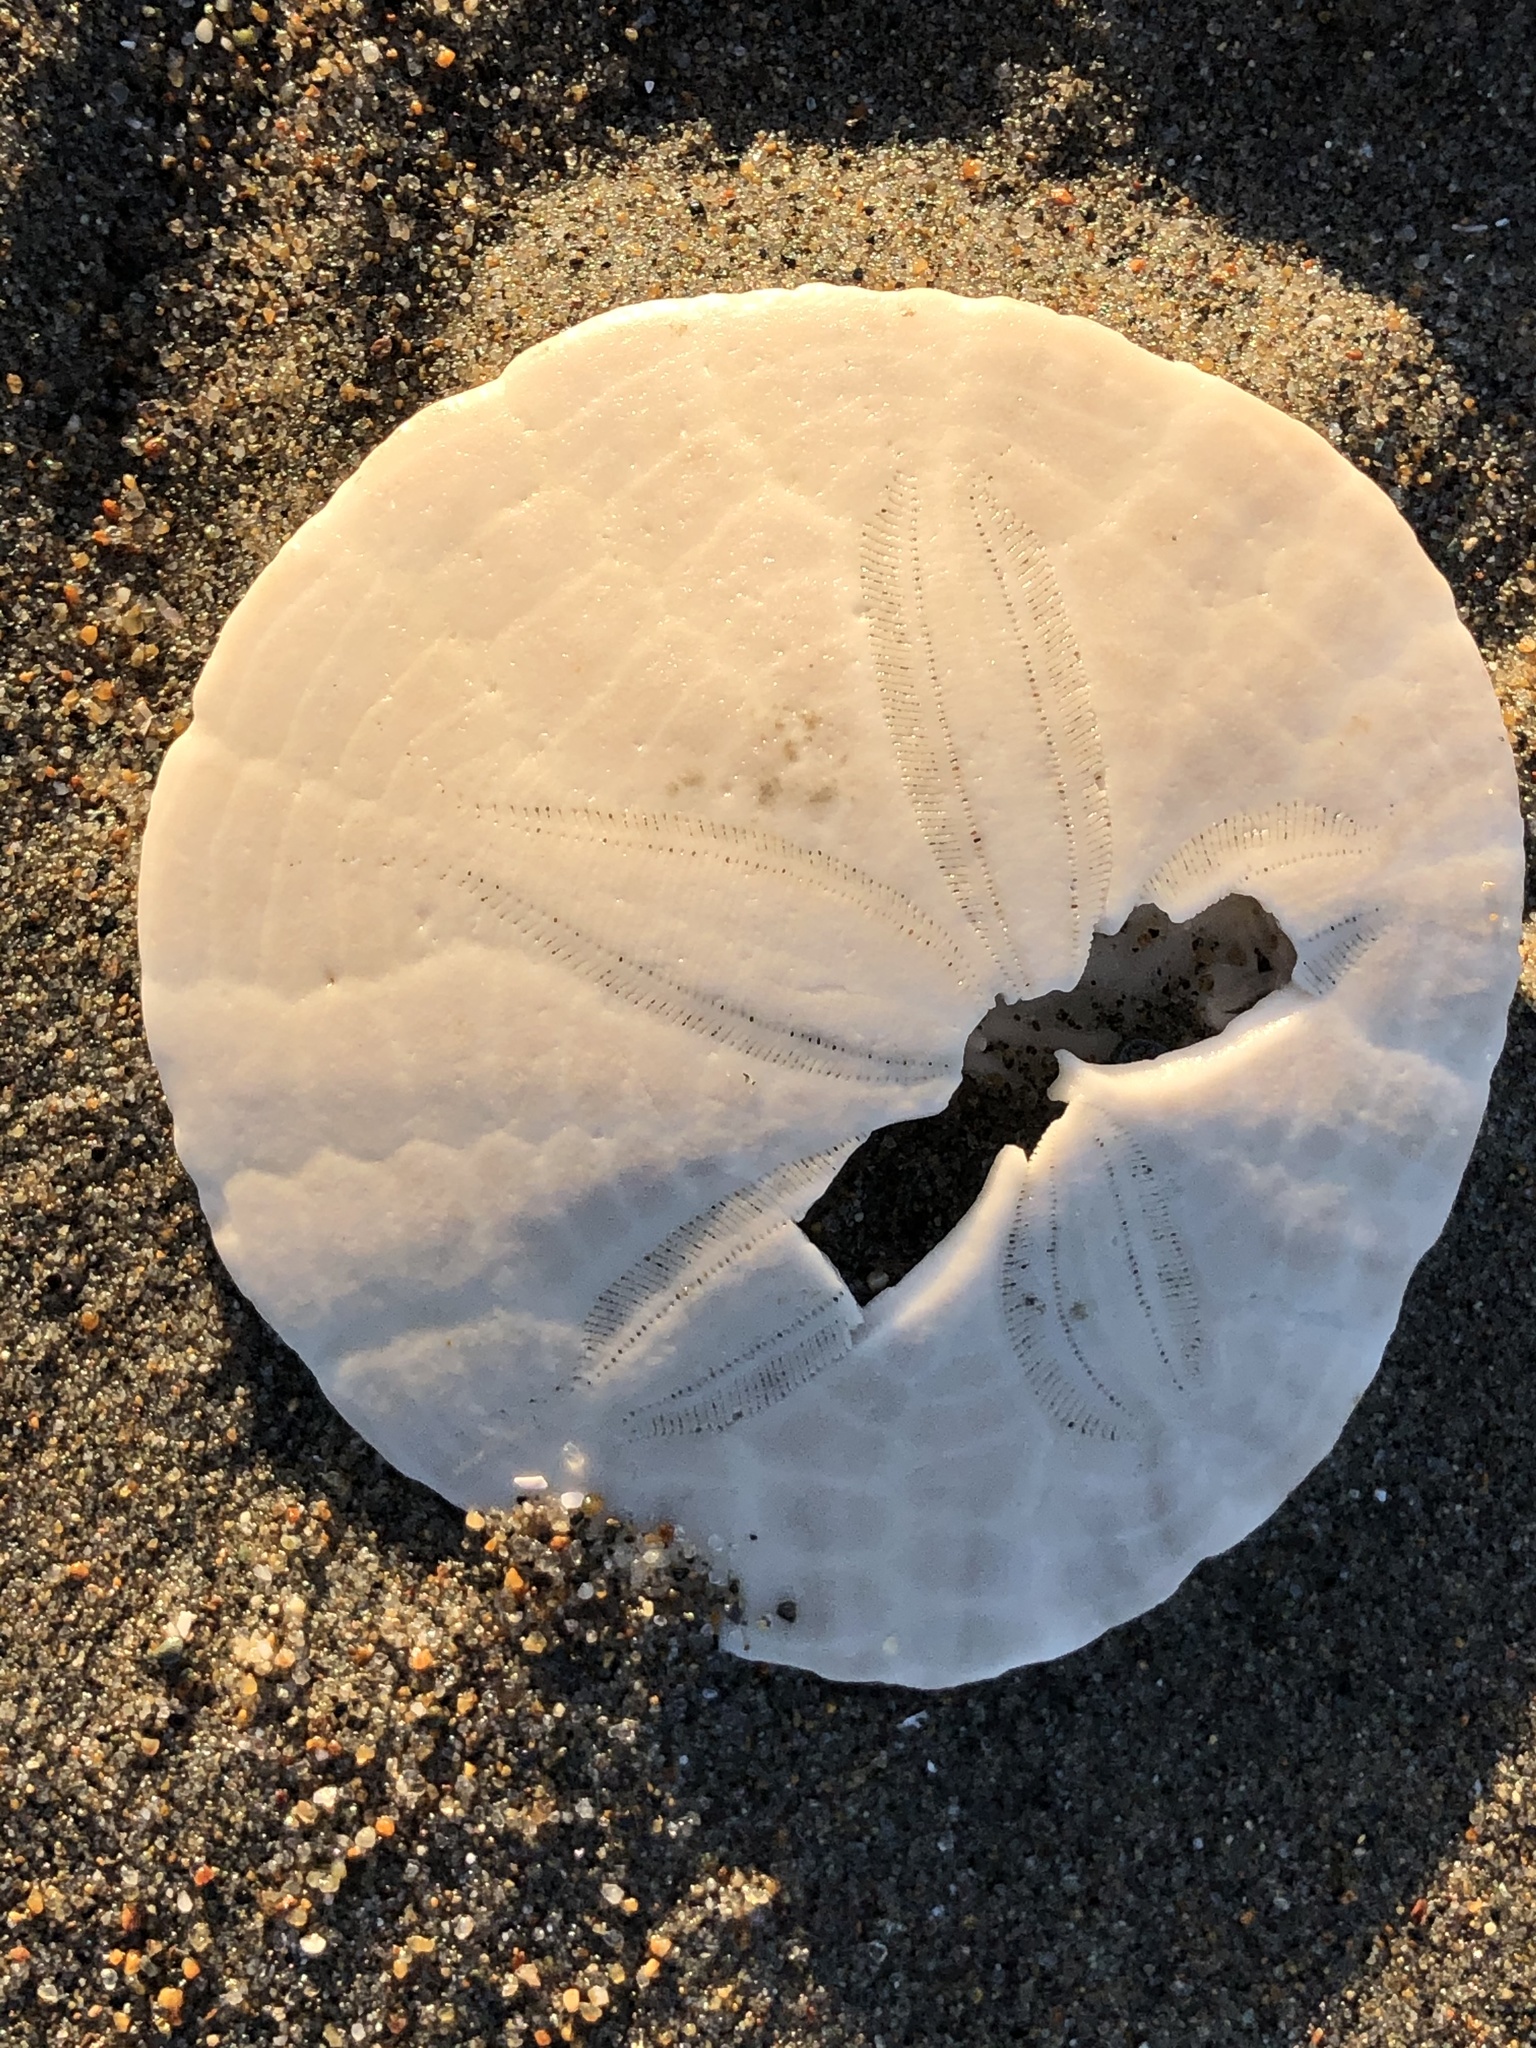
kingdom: Animalia
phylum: Echinodermata
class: Echinoidea
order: Echinolampadacea
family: Dendrasteridae
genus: Dendraster
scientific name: Dendraster excentricus
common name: Eccentric sand dollar sea urchin
